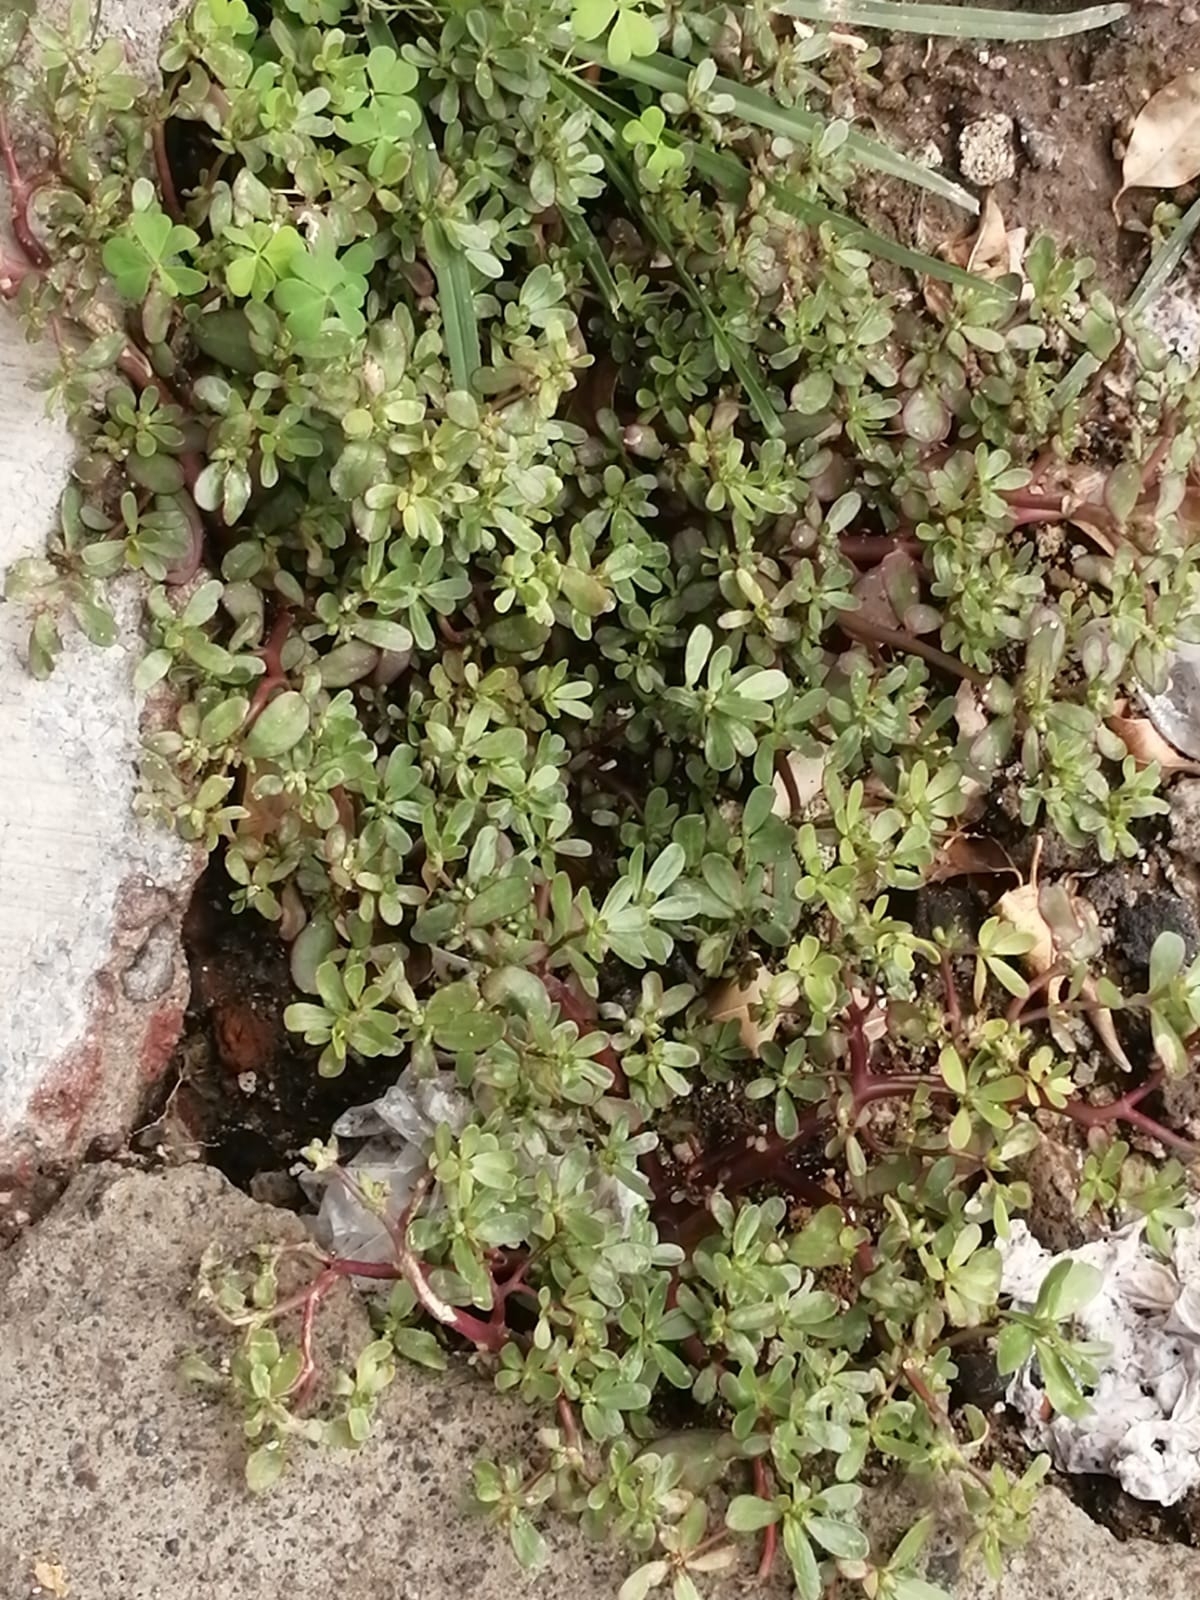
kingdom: Plantae
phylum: Tracheophyta
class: Magnoliopsida
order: Caryophyllales
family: Portulacaceae
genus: Portulaca
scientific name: Portulaca oleracea
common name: Common purslane
